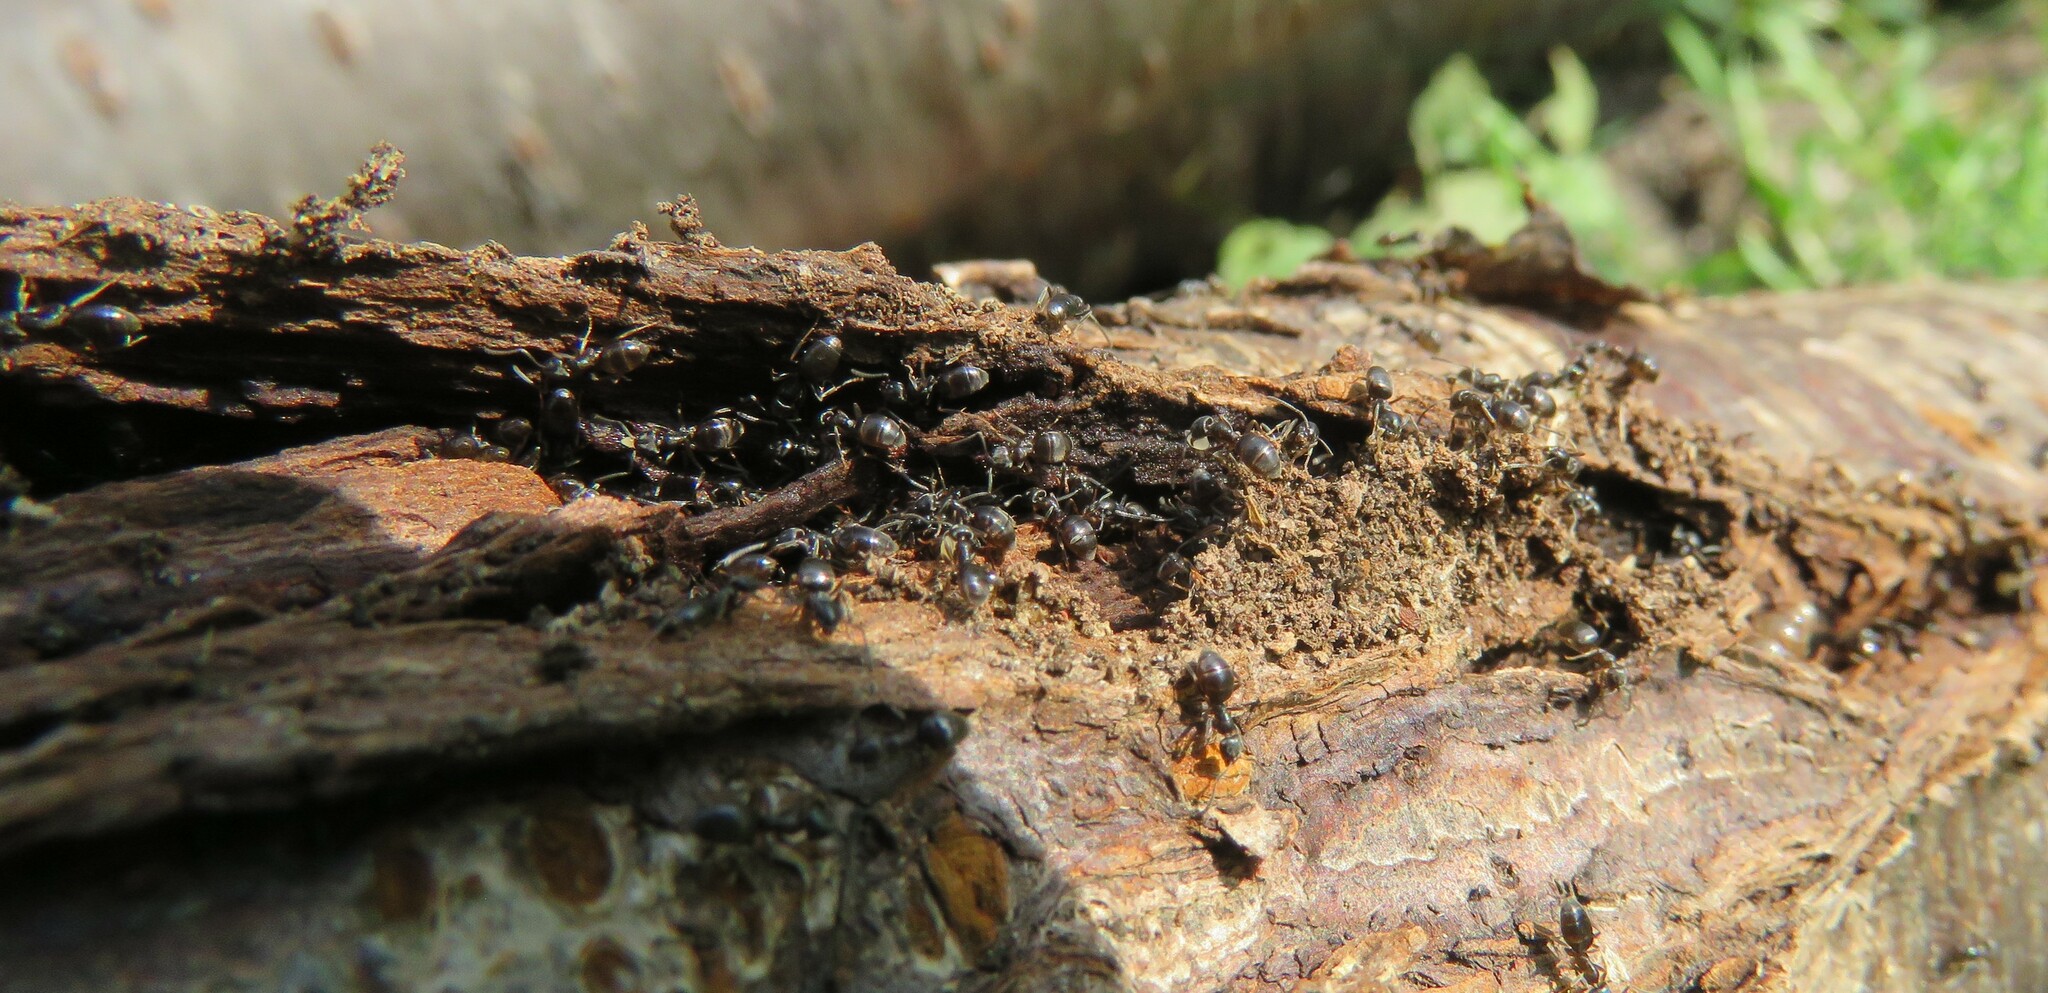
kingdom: Animalia
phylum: Arthropoda
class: Insecta
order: Hymenoptera
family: Formicidae
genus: Tapinoma
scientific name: Tapinoma sessile
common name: Odorous house ant
